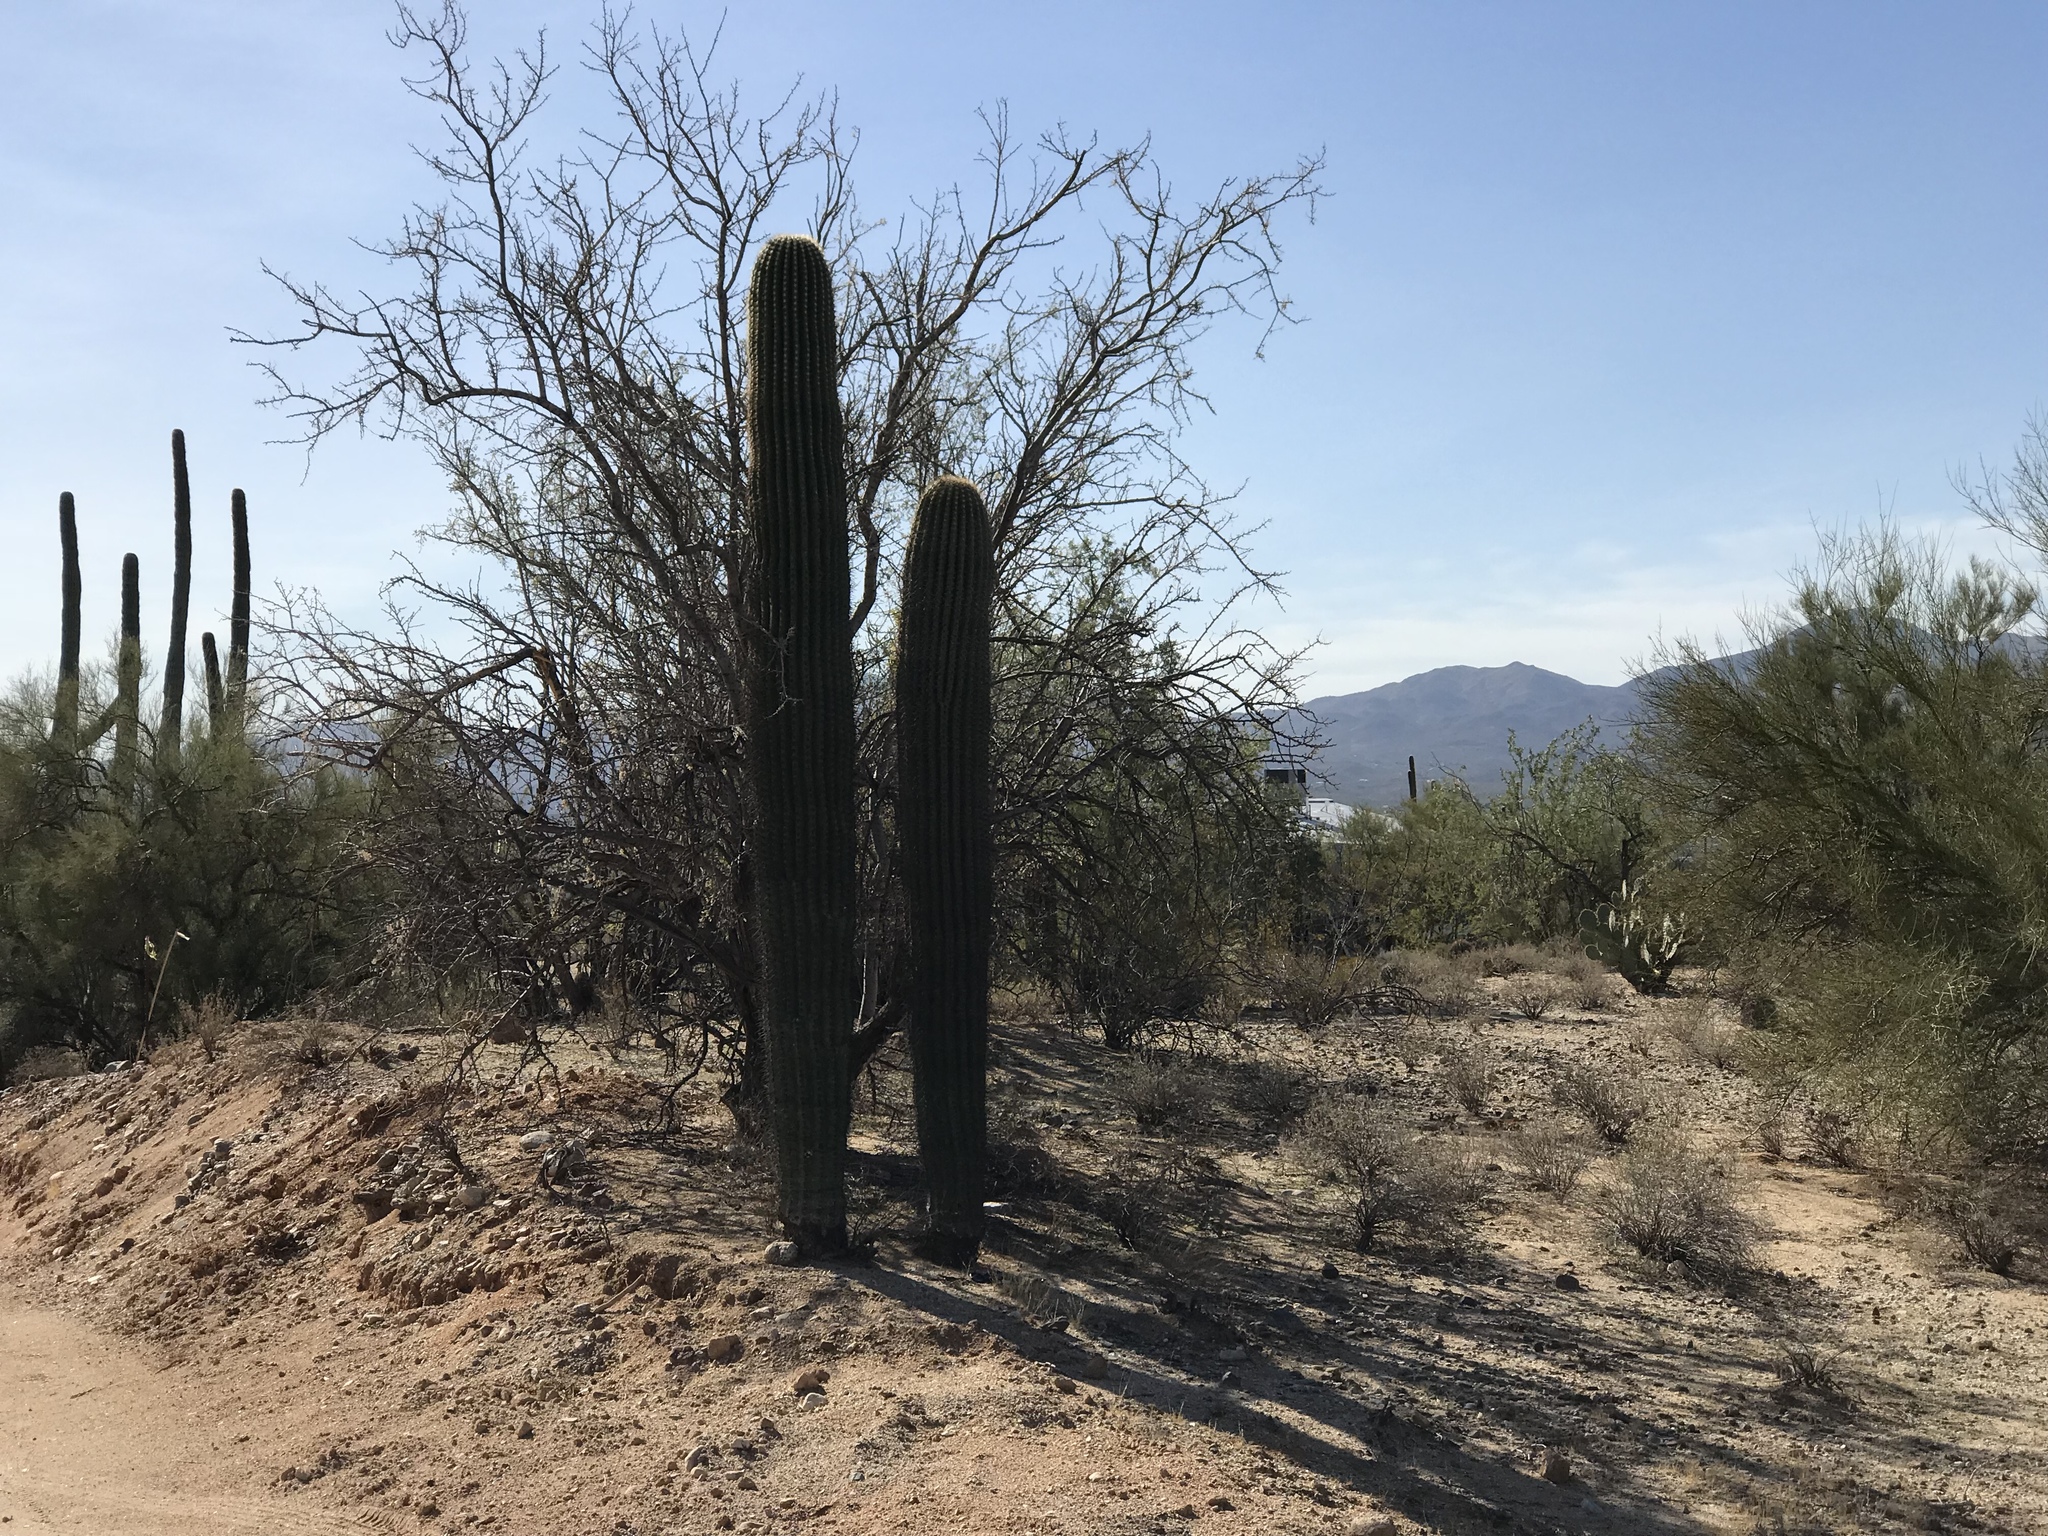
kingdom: Plantae
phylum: Tracheophyta
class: Magnoliopsida
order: Caryophyllales
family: Cactaceae
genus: Carnegiea
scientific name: Carnegiea gigantea
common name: Saguaro
